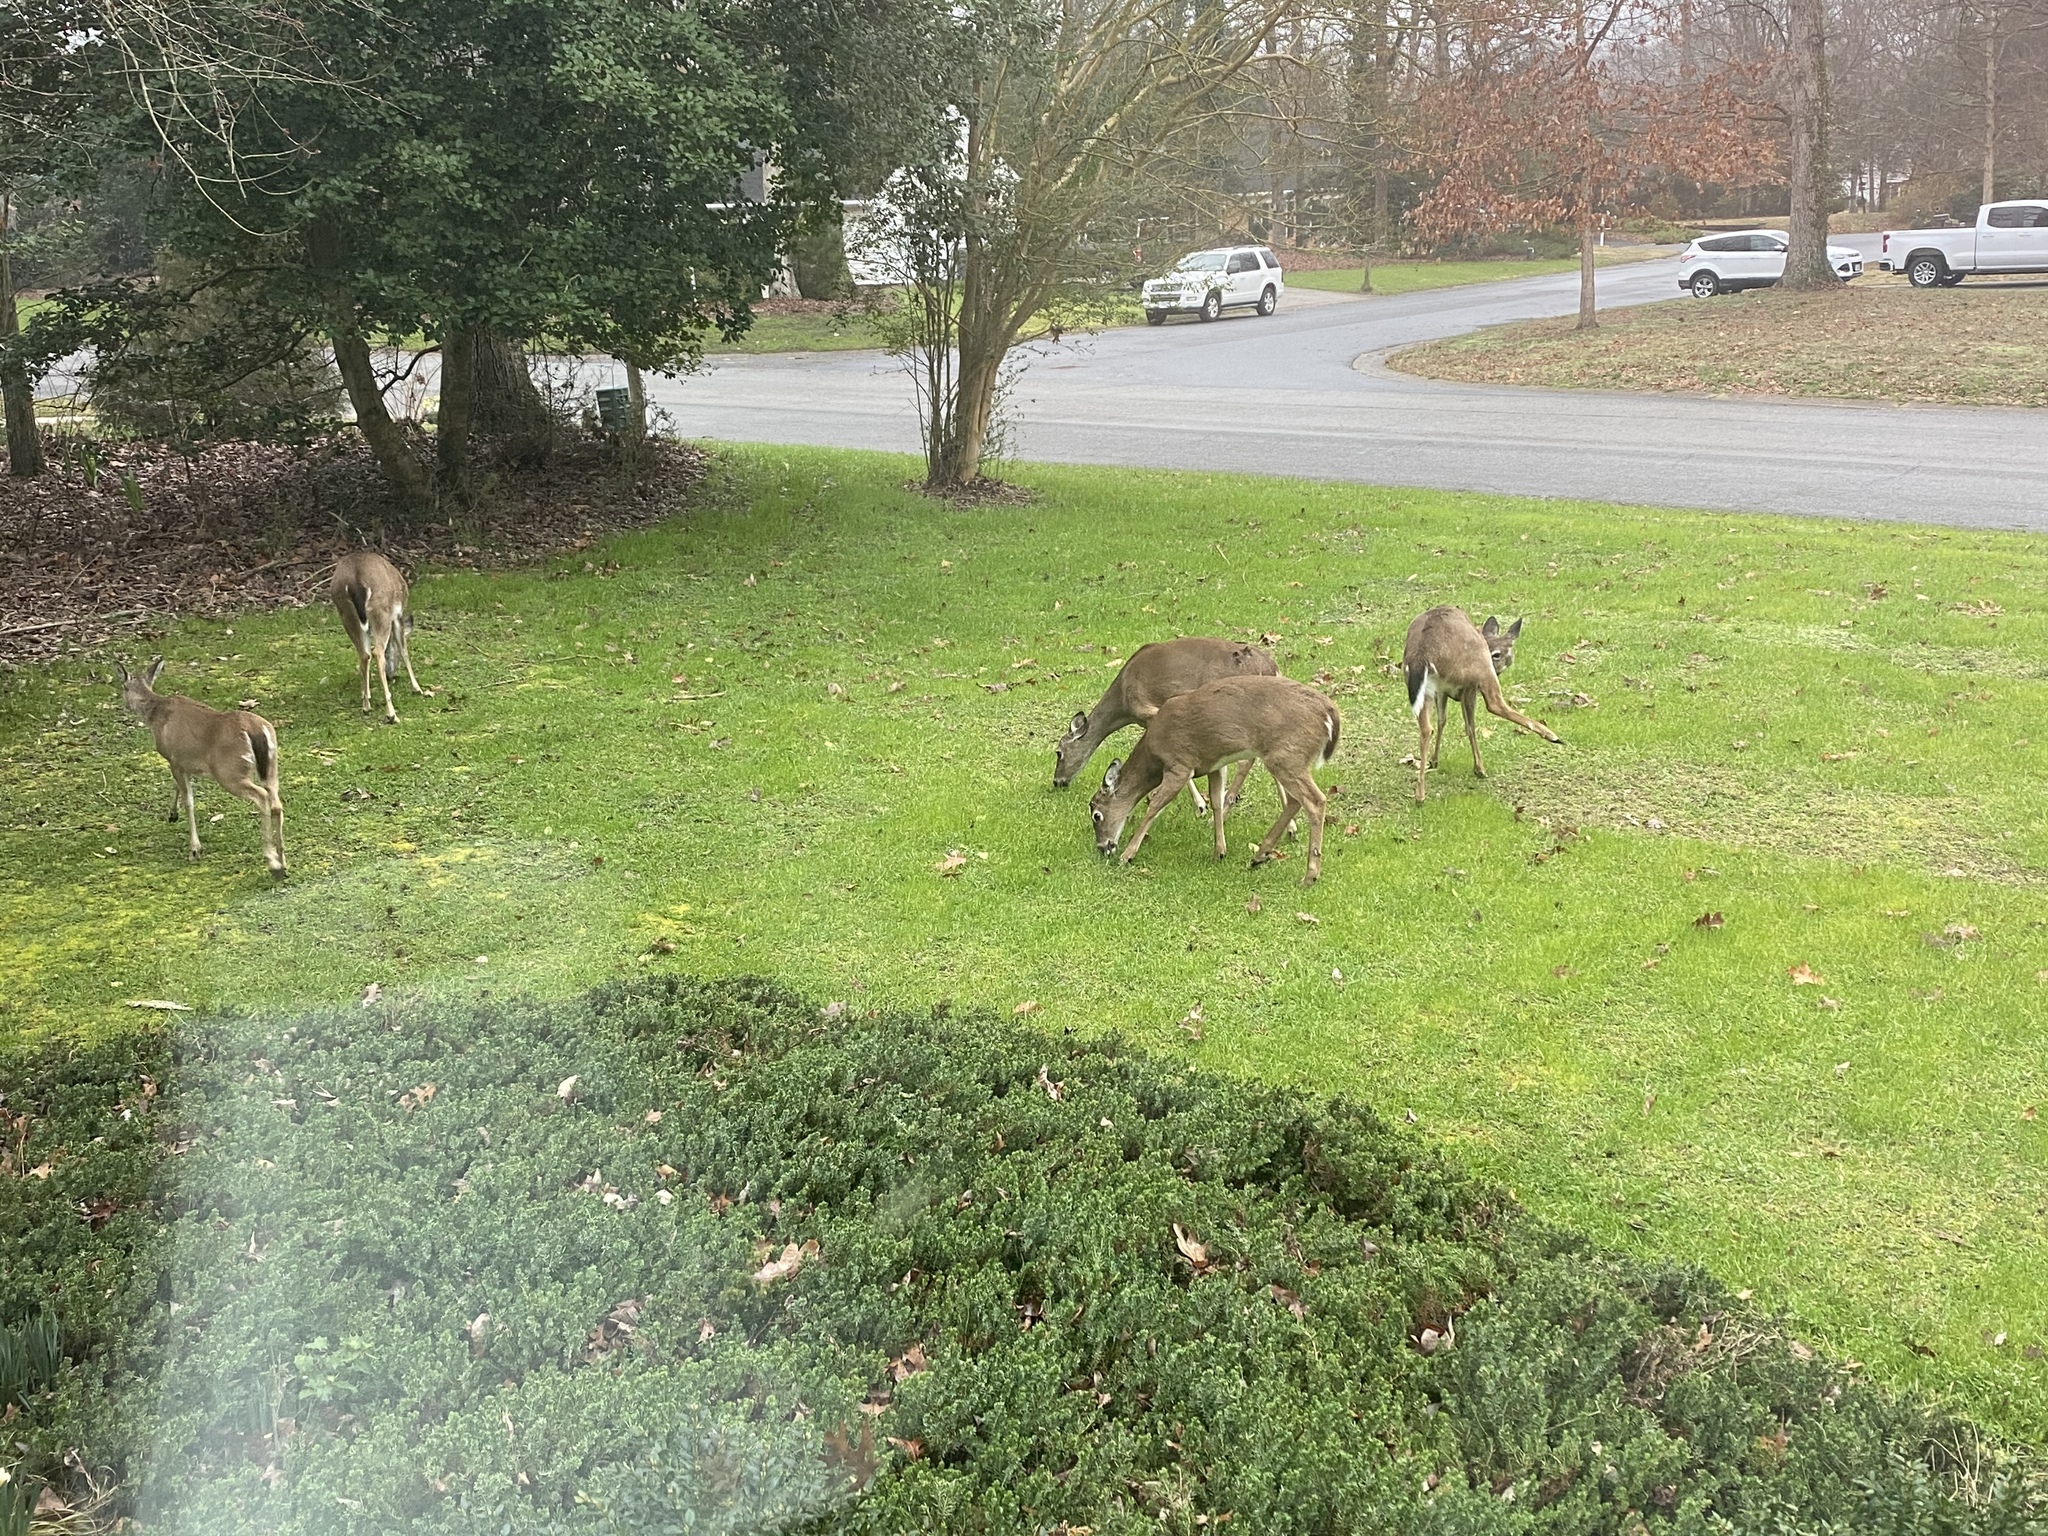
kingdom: Animalia
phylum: Chordata
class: Mammalia
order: Artiodactyla
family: Cervidae
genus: Odocoileus
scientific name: Odocoileus virginianus
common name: White-tailed deer
